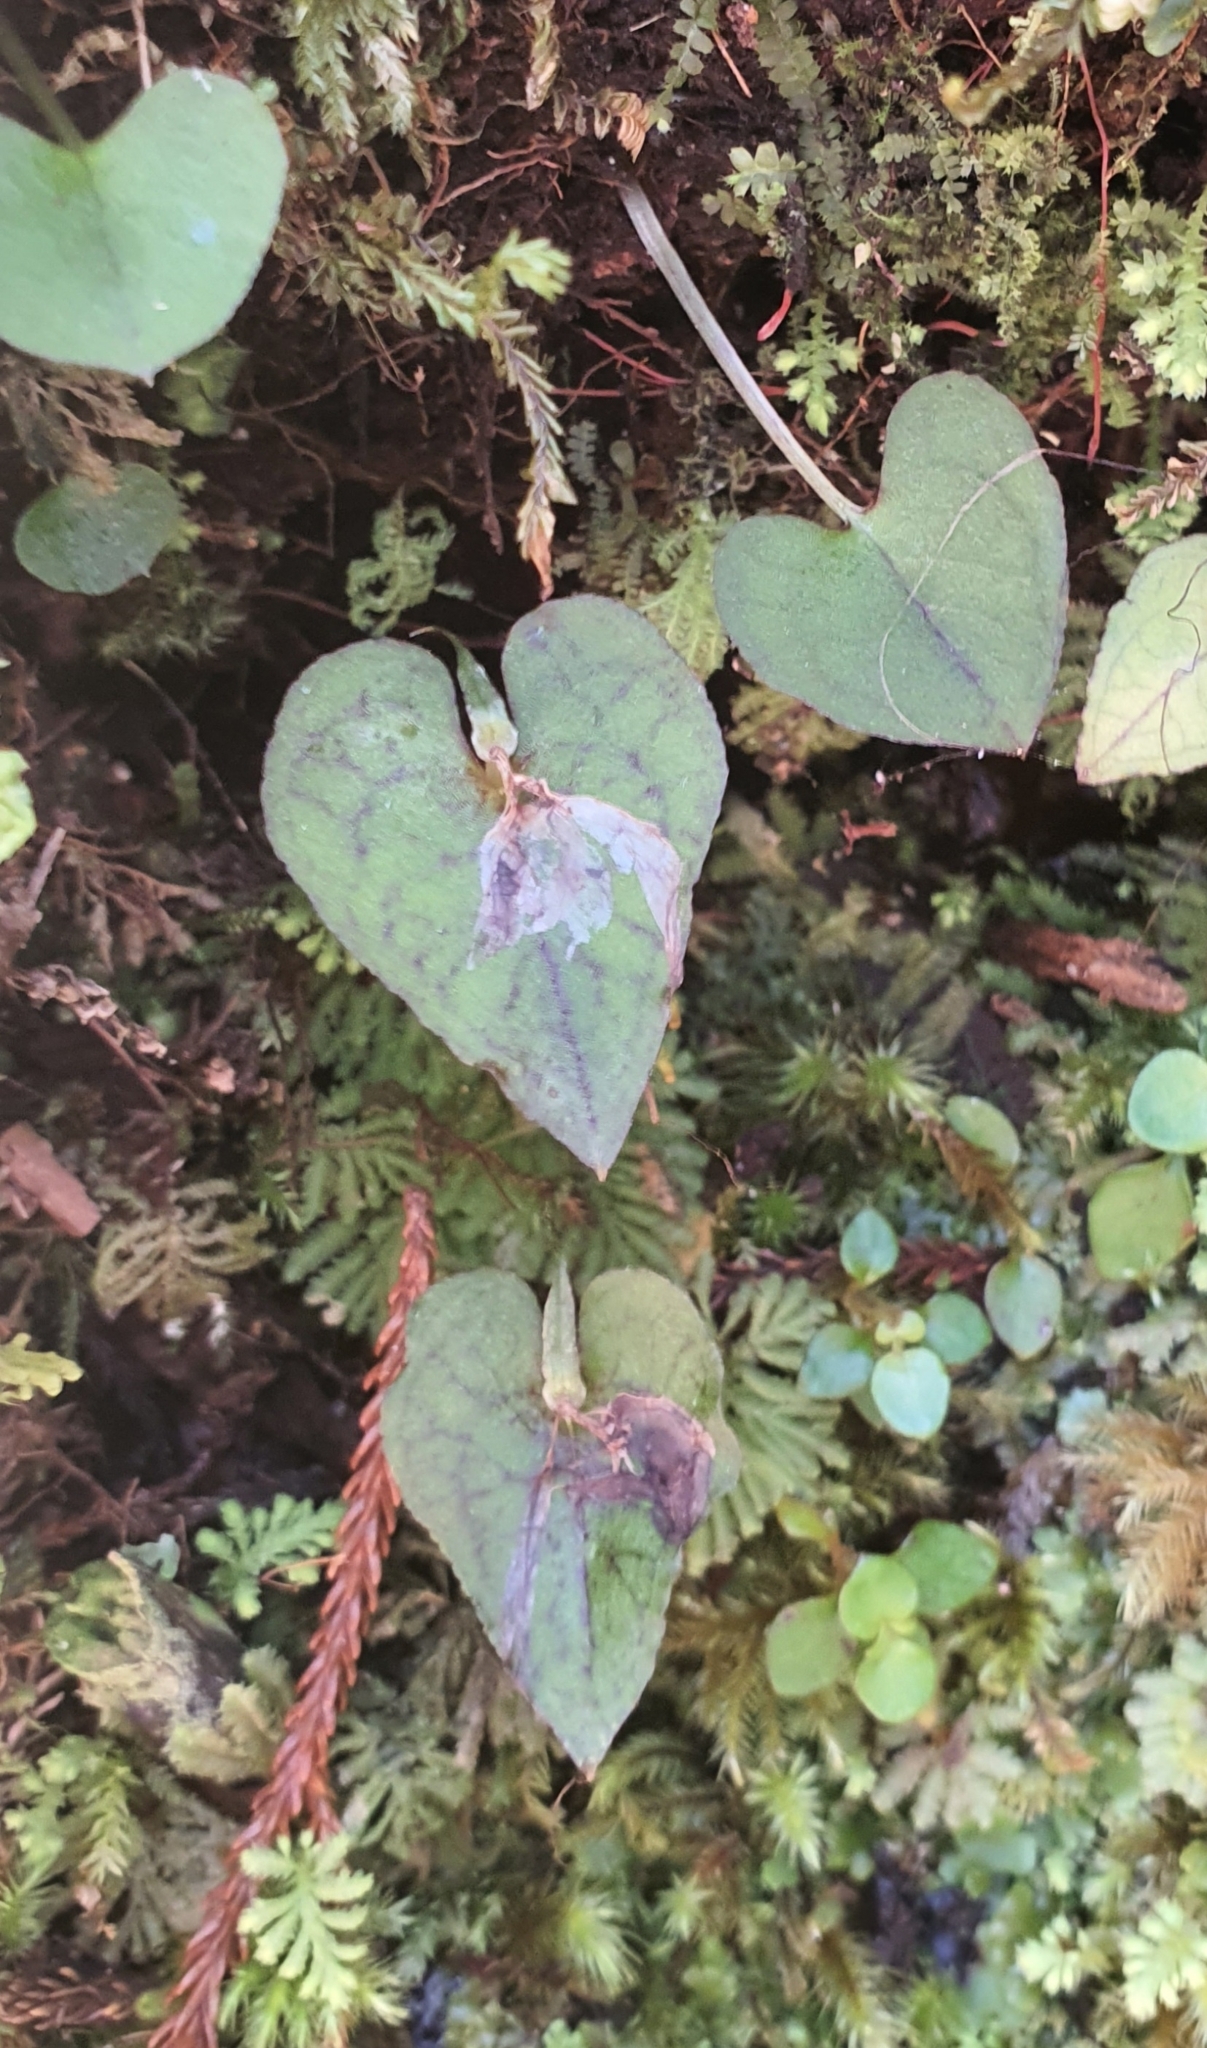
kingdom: Plantae
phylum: Tracheophyta
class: Liliopsida
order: Asparagales
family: Orchidaceae
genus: Corybas
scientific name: Corybas acuminatus
